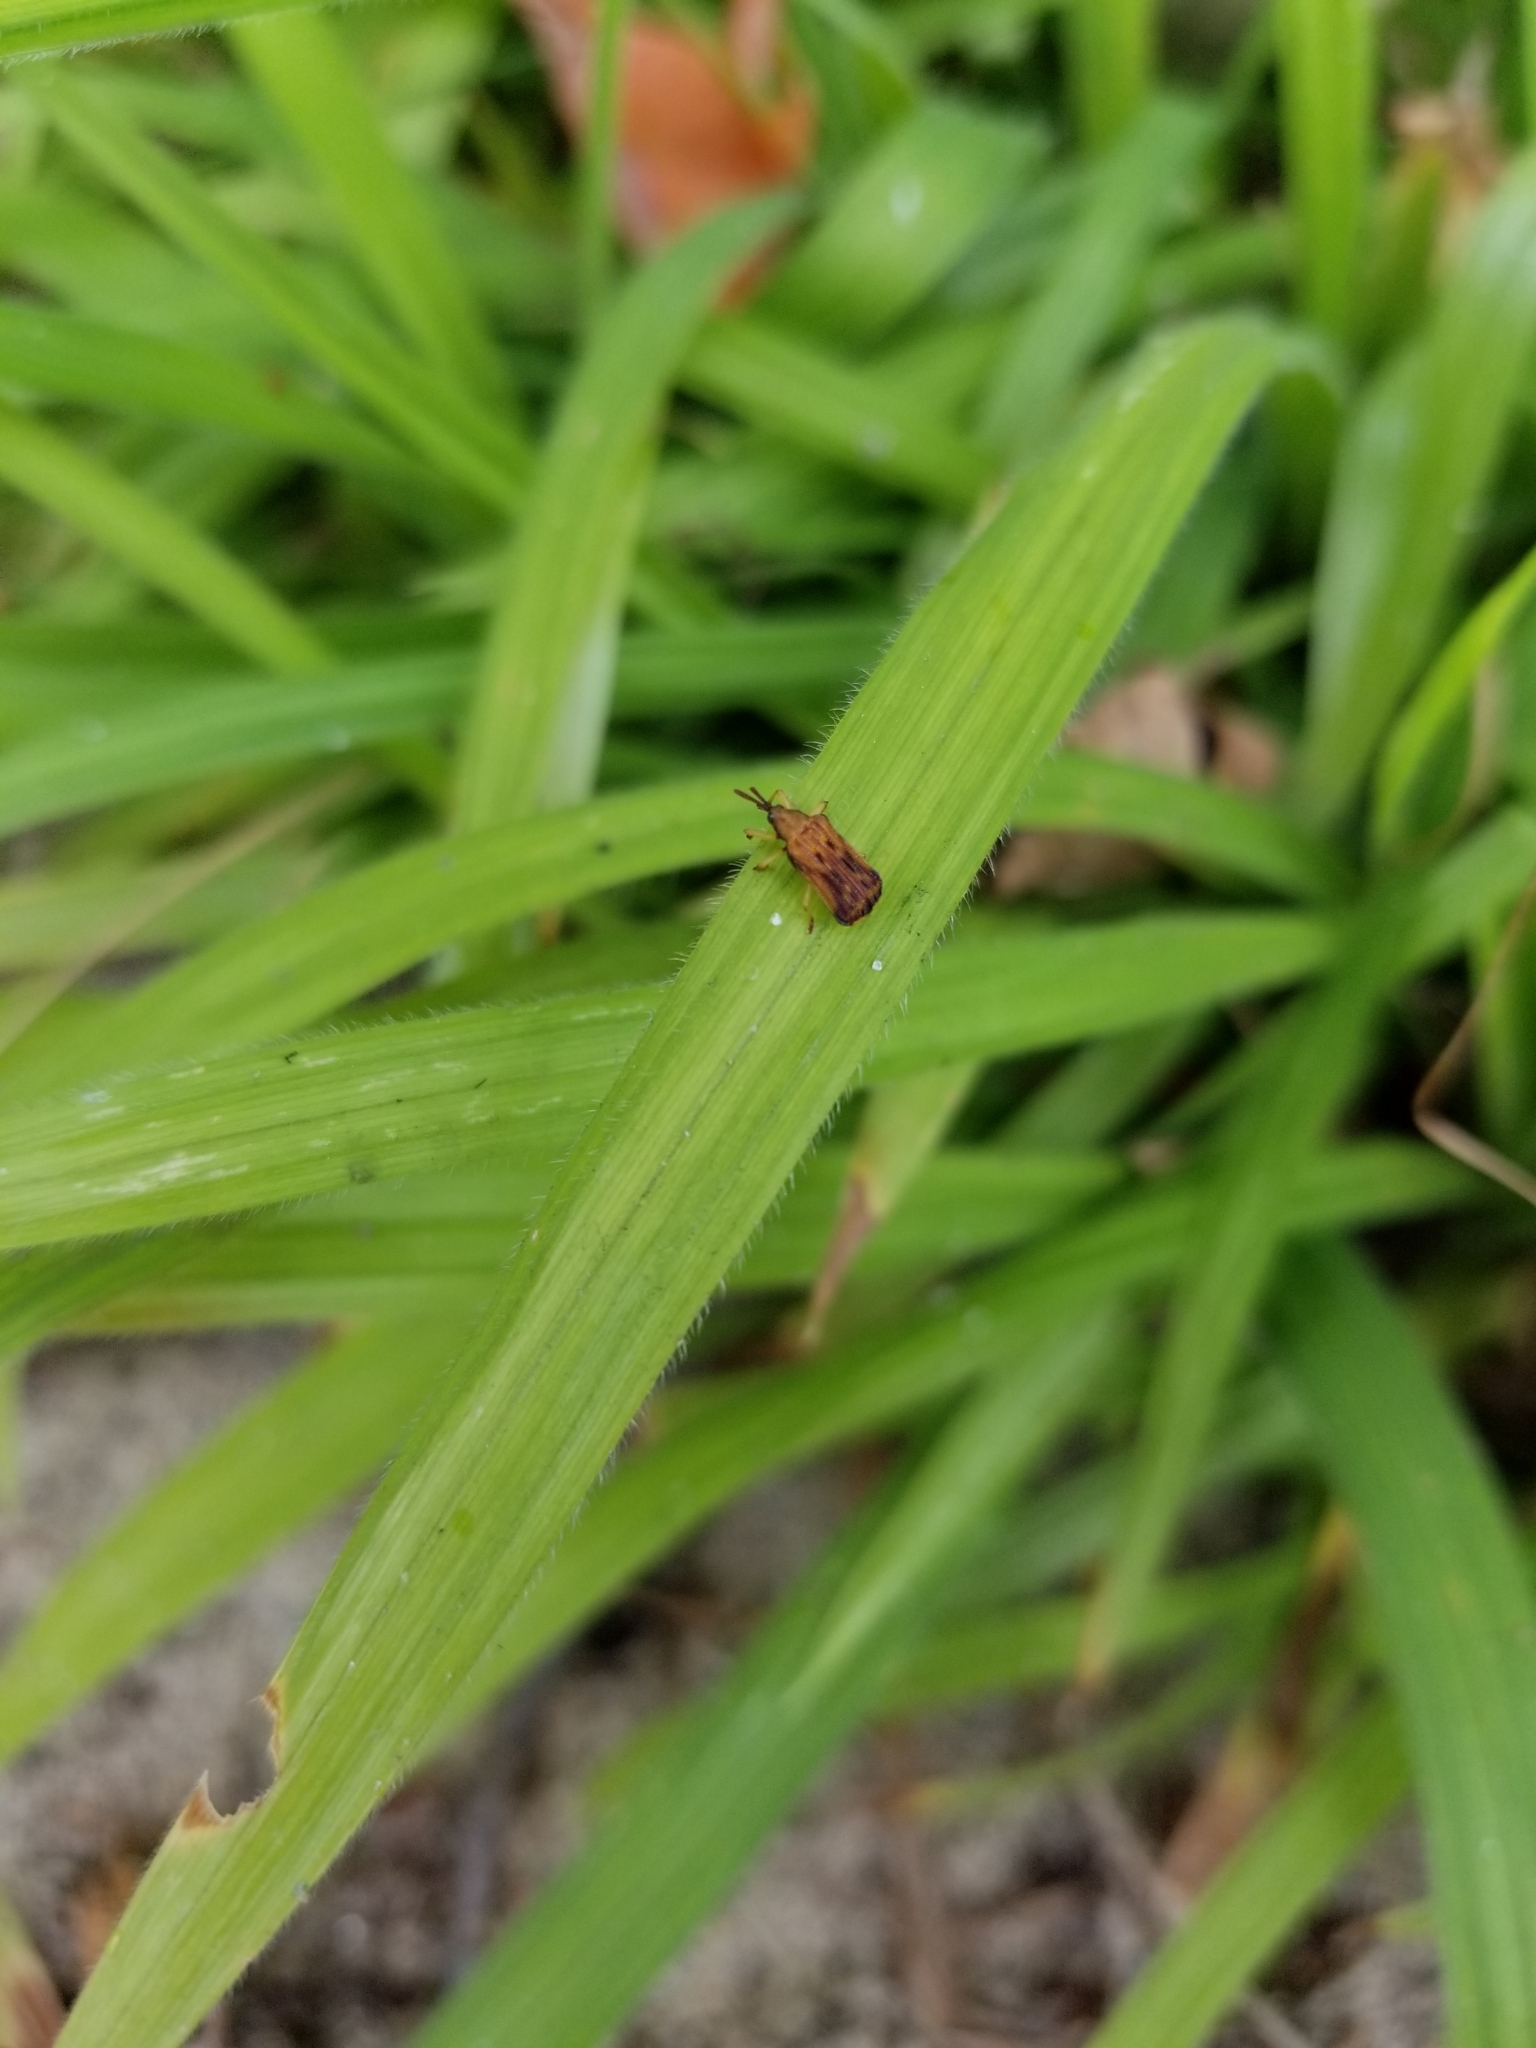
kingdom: Animalia
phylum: Arthropoda
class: Insecta
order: Coleoptera
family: Chrysomelidae
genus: Baliosus
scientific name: Baliosus nervosus
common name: Basswood leaf miner
